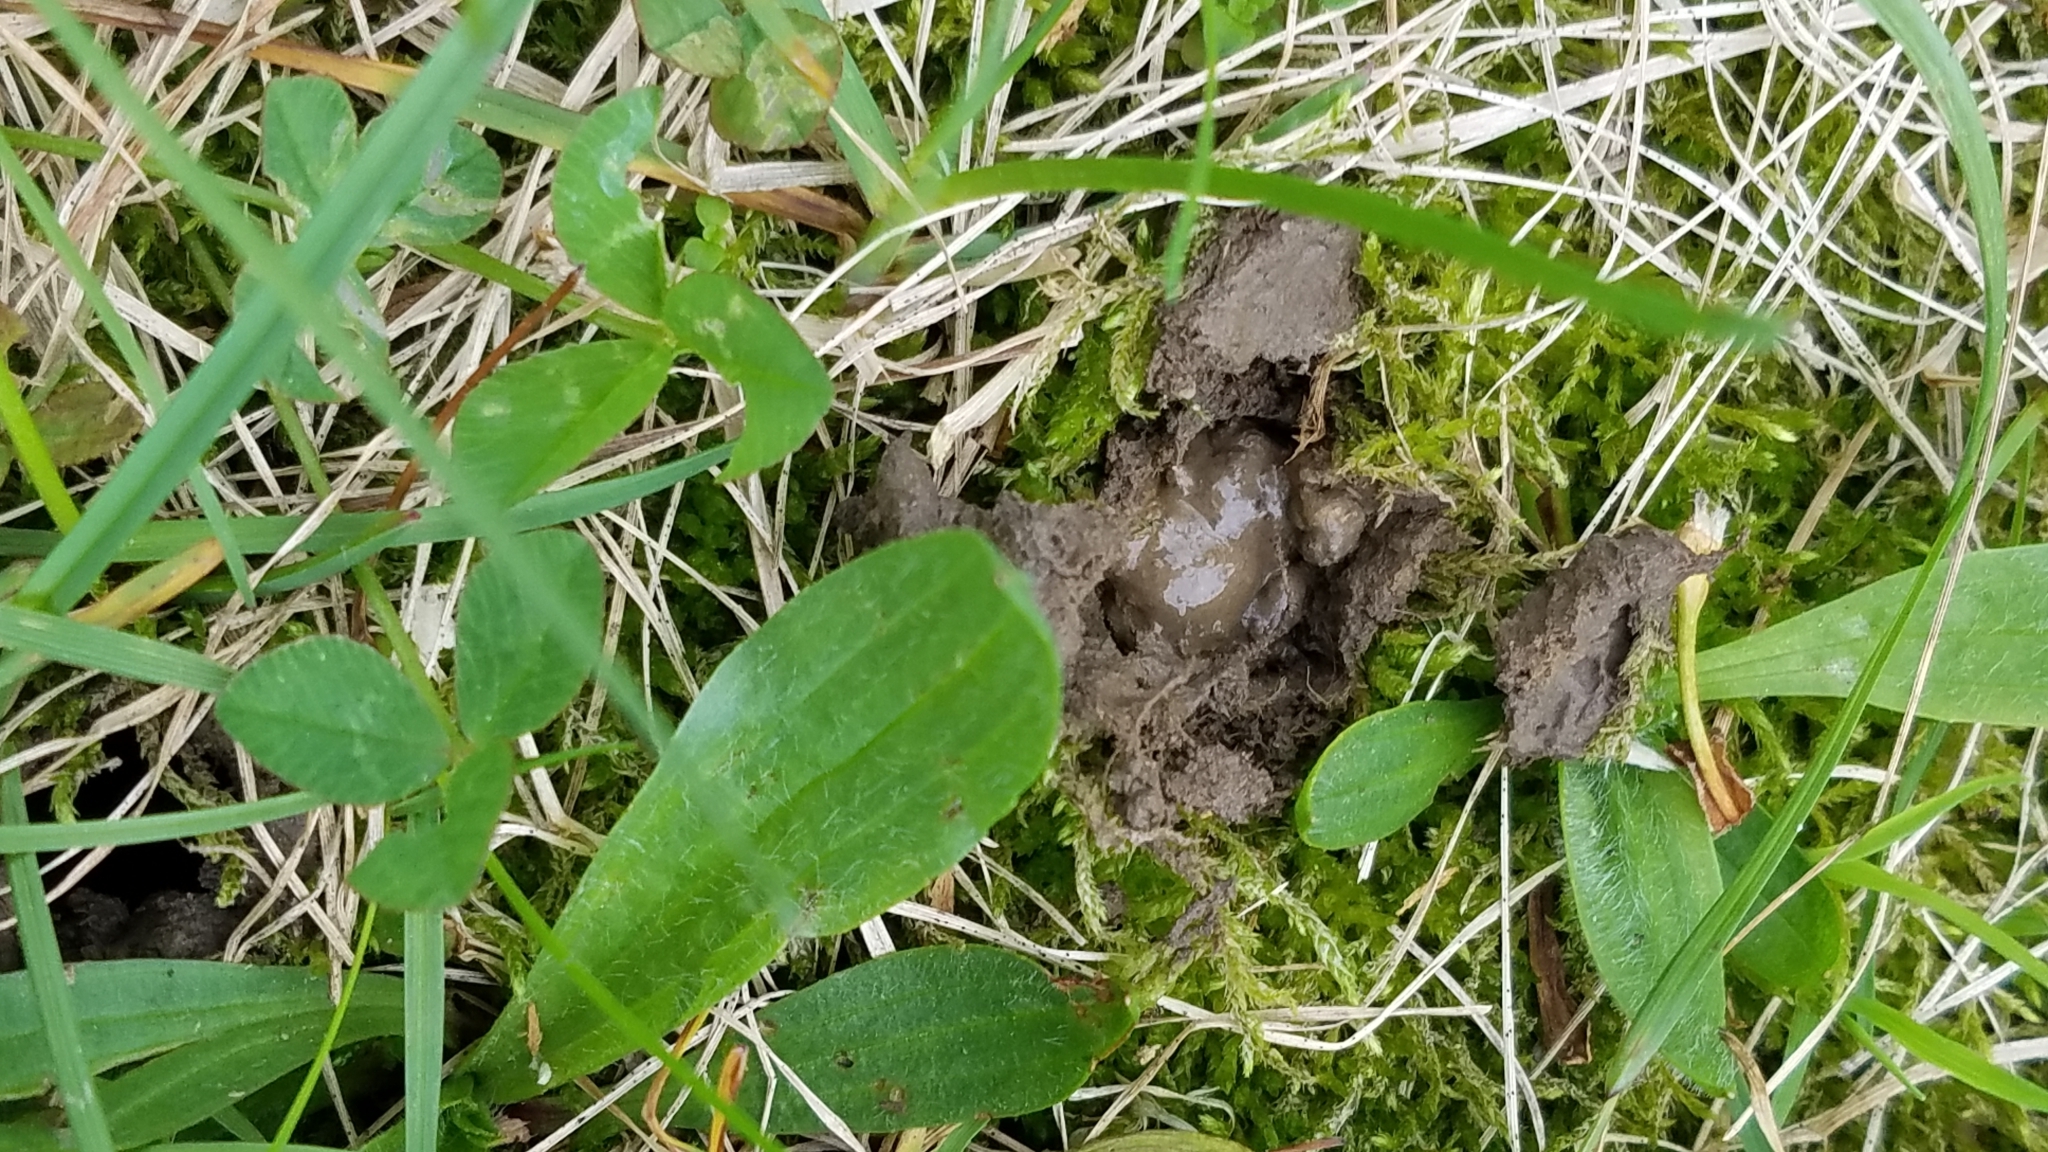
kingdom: Animalia
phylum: Arthropoda
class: Insecta
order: Hemiptera
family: Cicadidae
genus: Magicicada
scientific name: Magicicada
